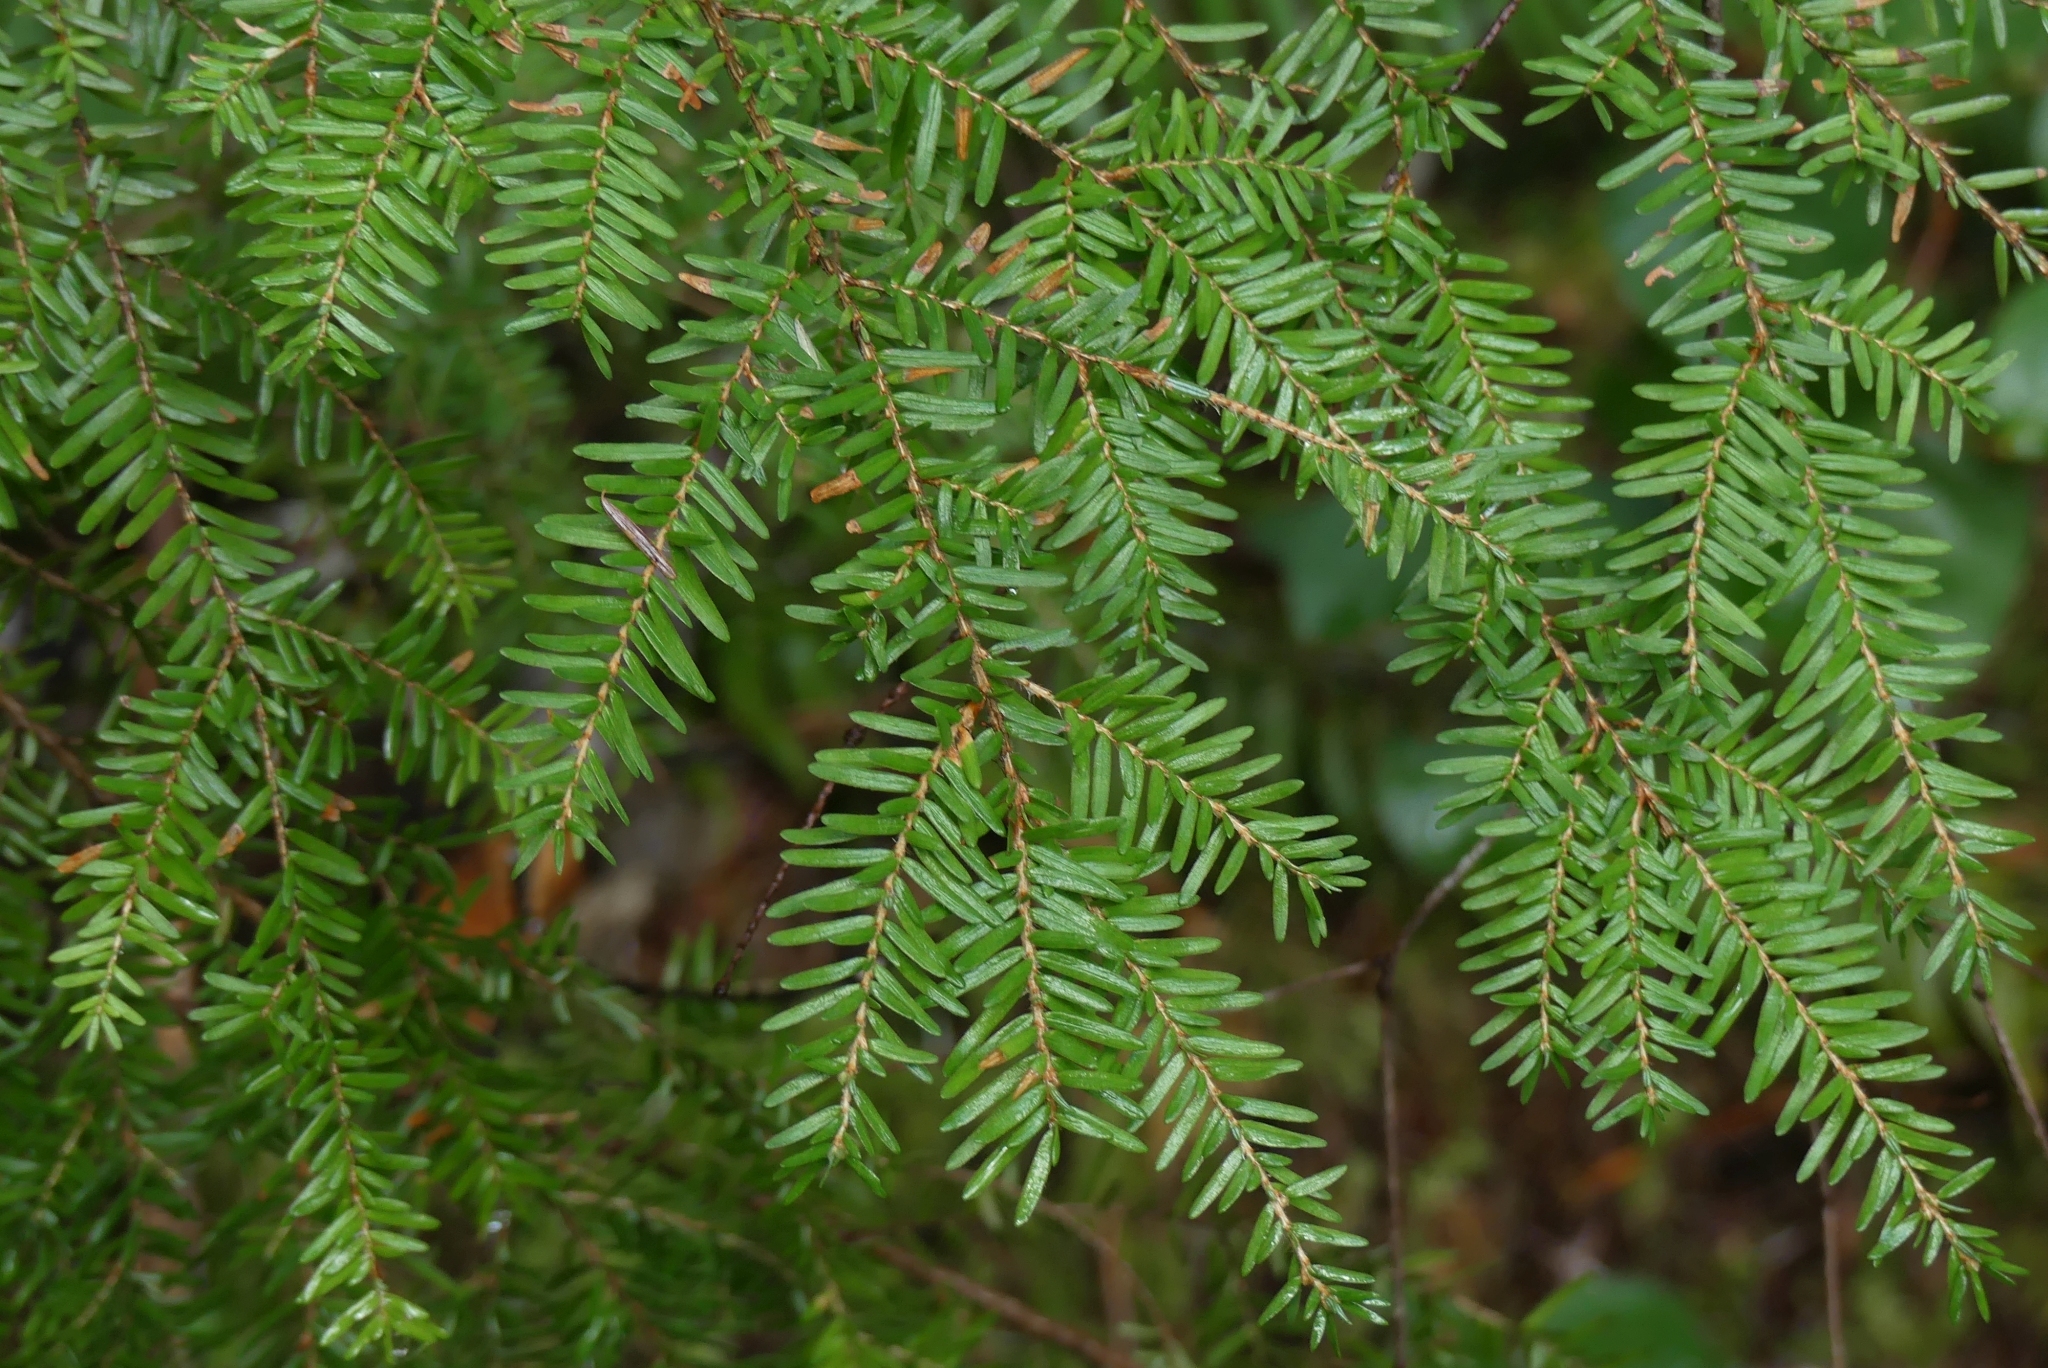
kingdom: Plantae
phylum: Tracheophyta
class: Pinopsida
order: Pinales
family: Pinaceae
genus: Tsuga
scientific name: Tsuga heterophylla
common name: Western hemlock
